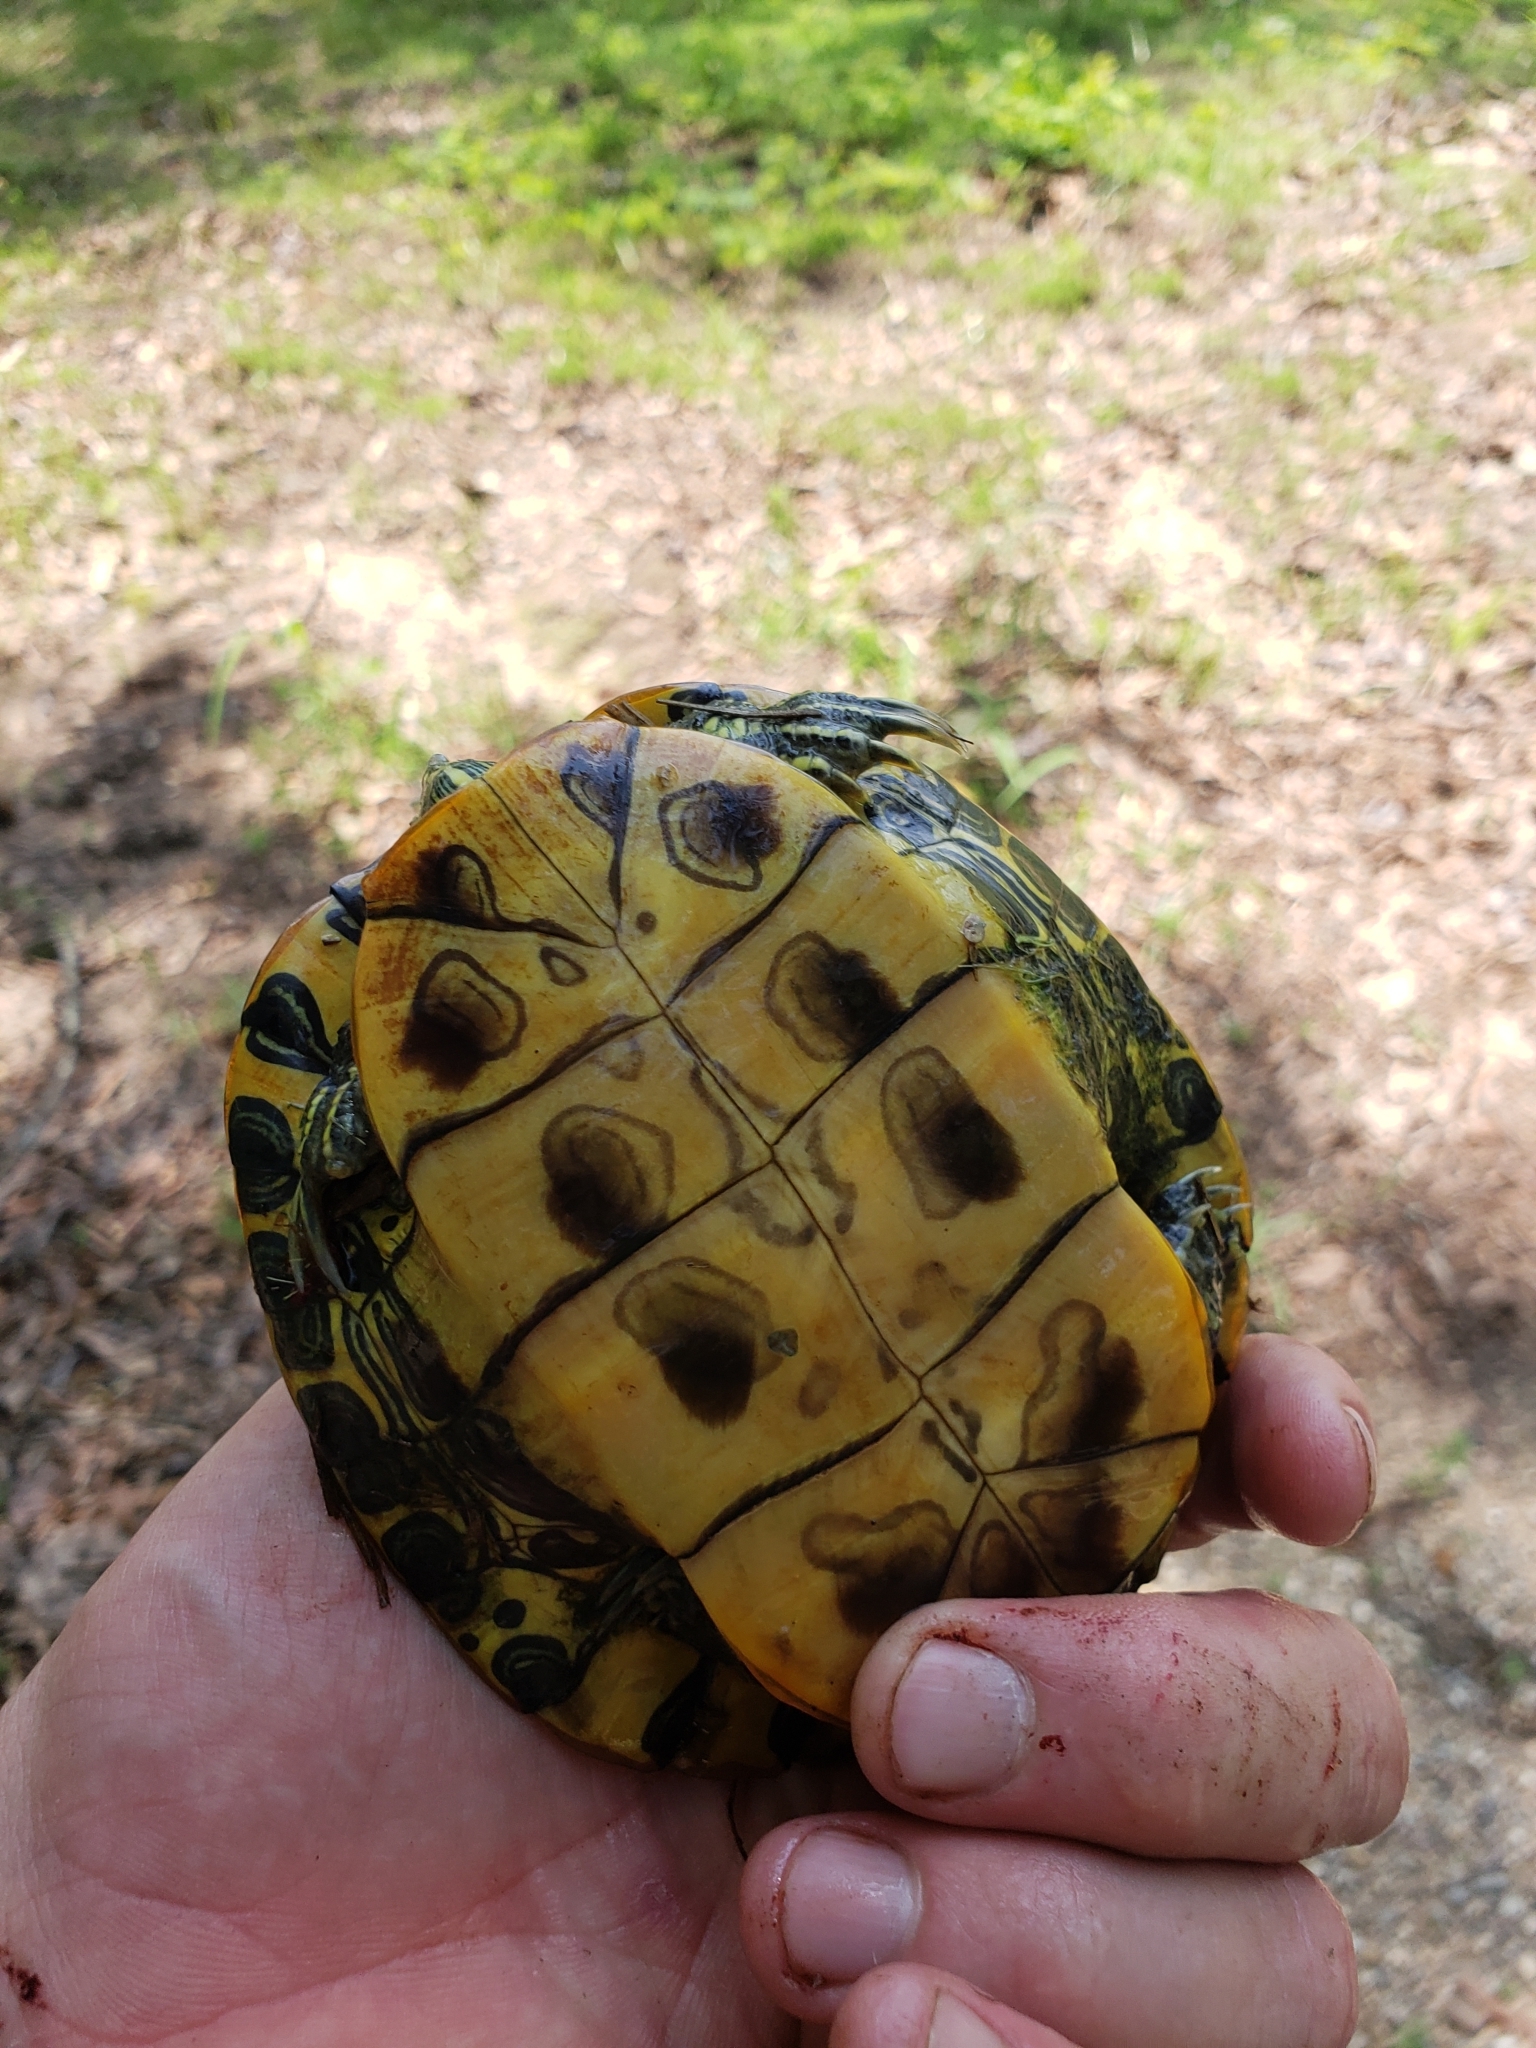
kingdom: Animalia
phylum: Chordata
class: Testudines
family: Emydidae
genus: Trachemys
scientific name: Trachemys scripta
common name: Slider
